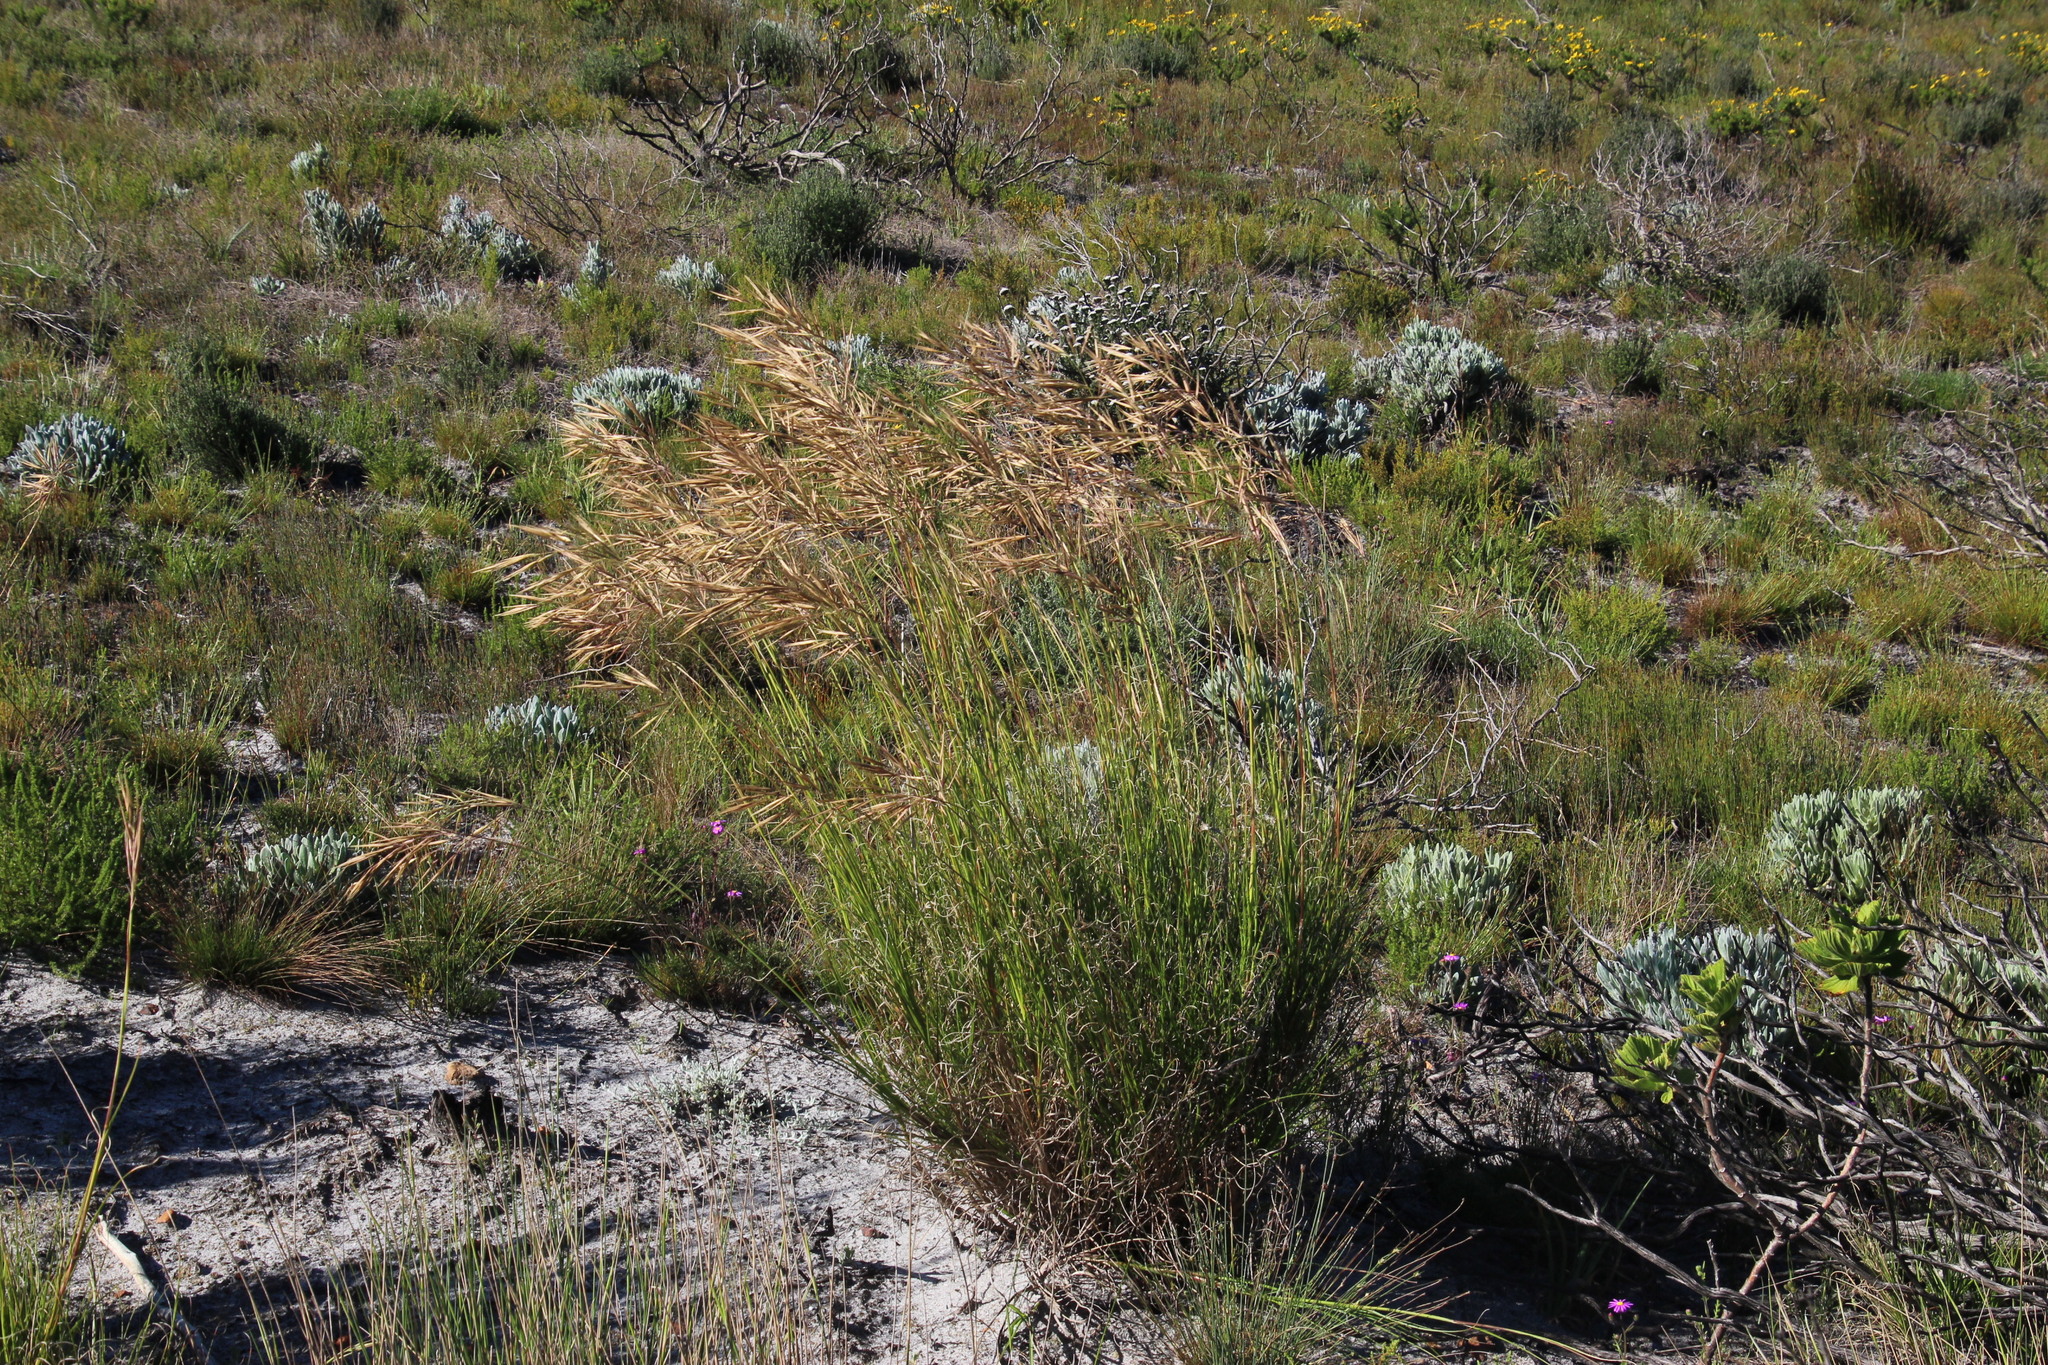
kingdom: Plantae
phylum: Tracheophyta
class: Liliopsida
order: Poales
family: Poaceae
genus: Pseudopentameris
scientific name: Pseudopentameris macrantha
